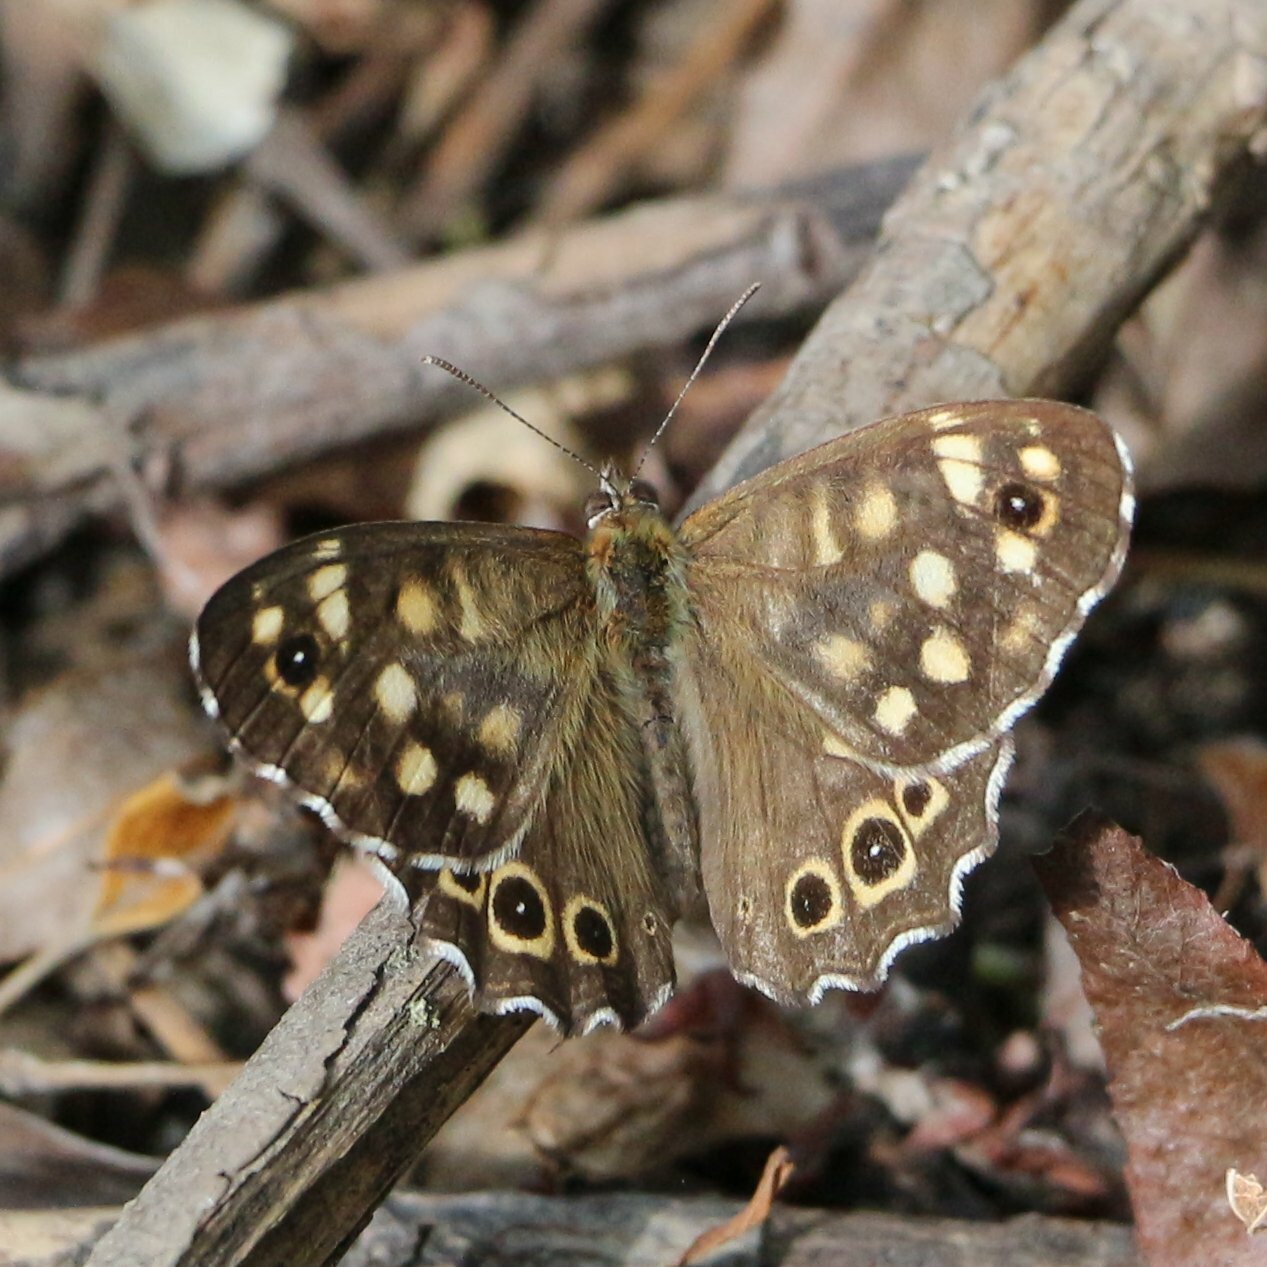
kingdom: Animalia
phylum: Arthropoda
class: Insecta
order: Lepidoptera
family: Nymphalidae
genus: Pararge
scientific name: Pararge aegeria
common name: Speckled wood
